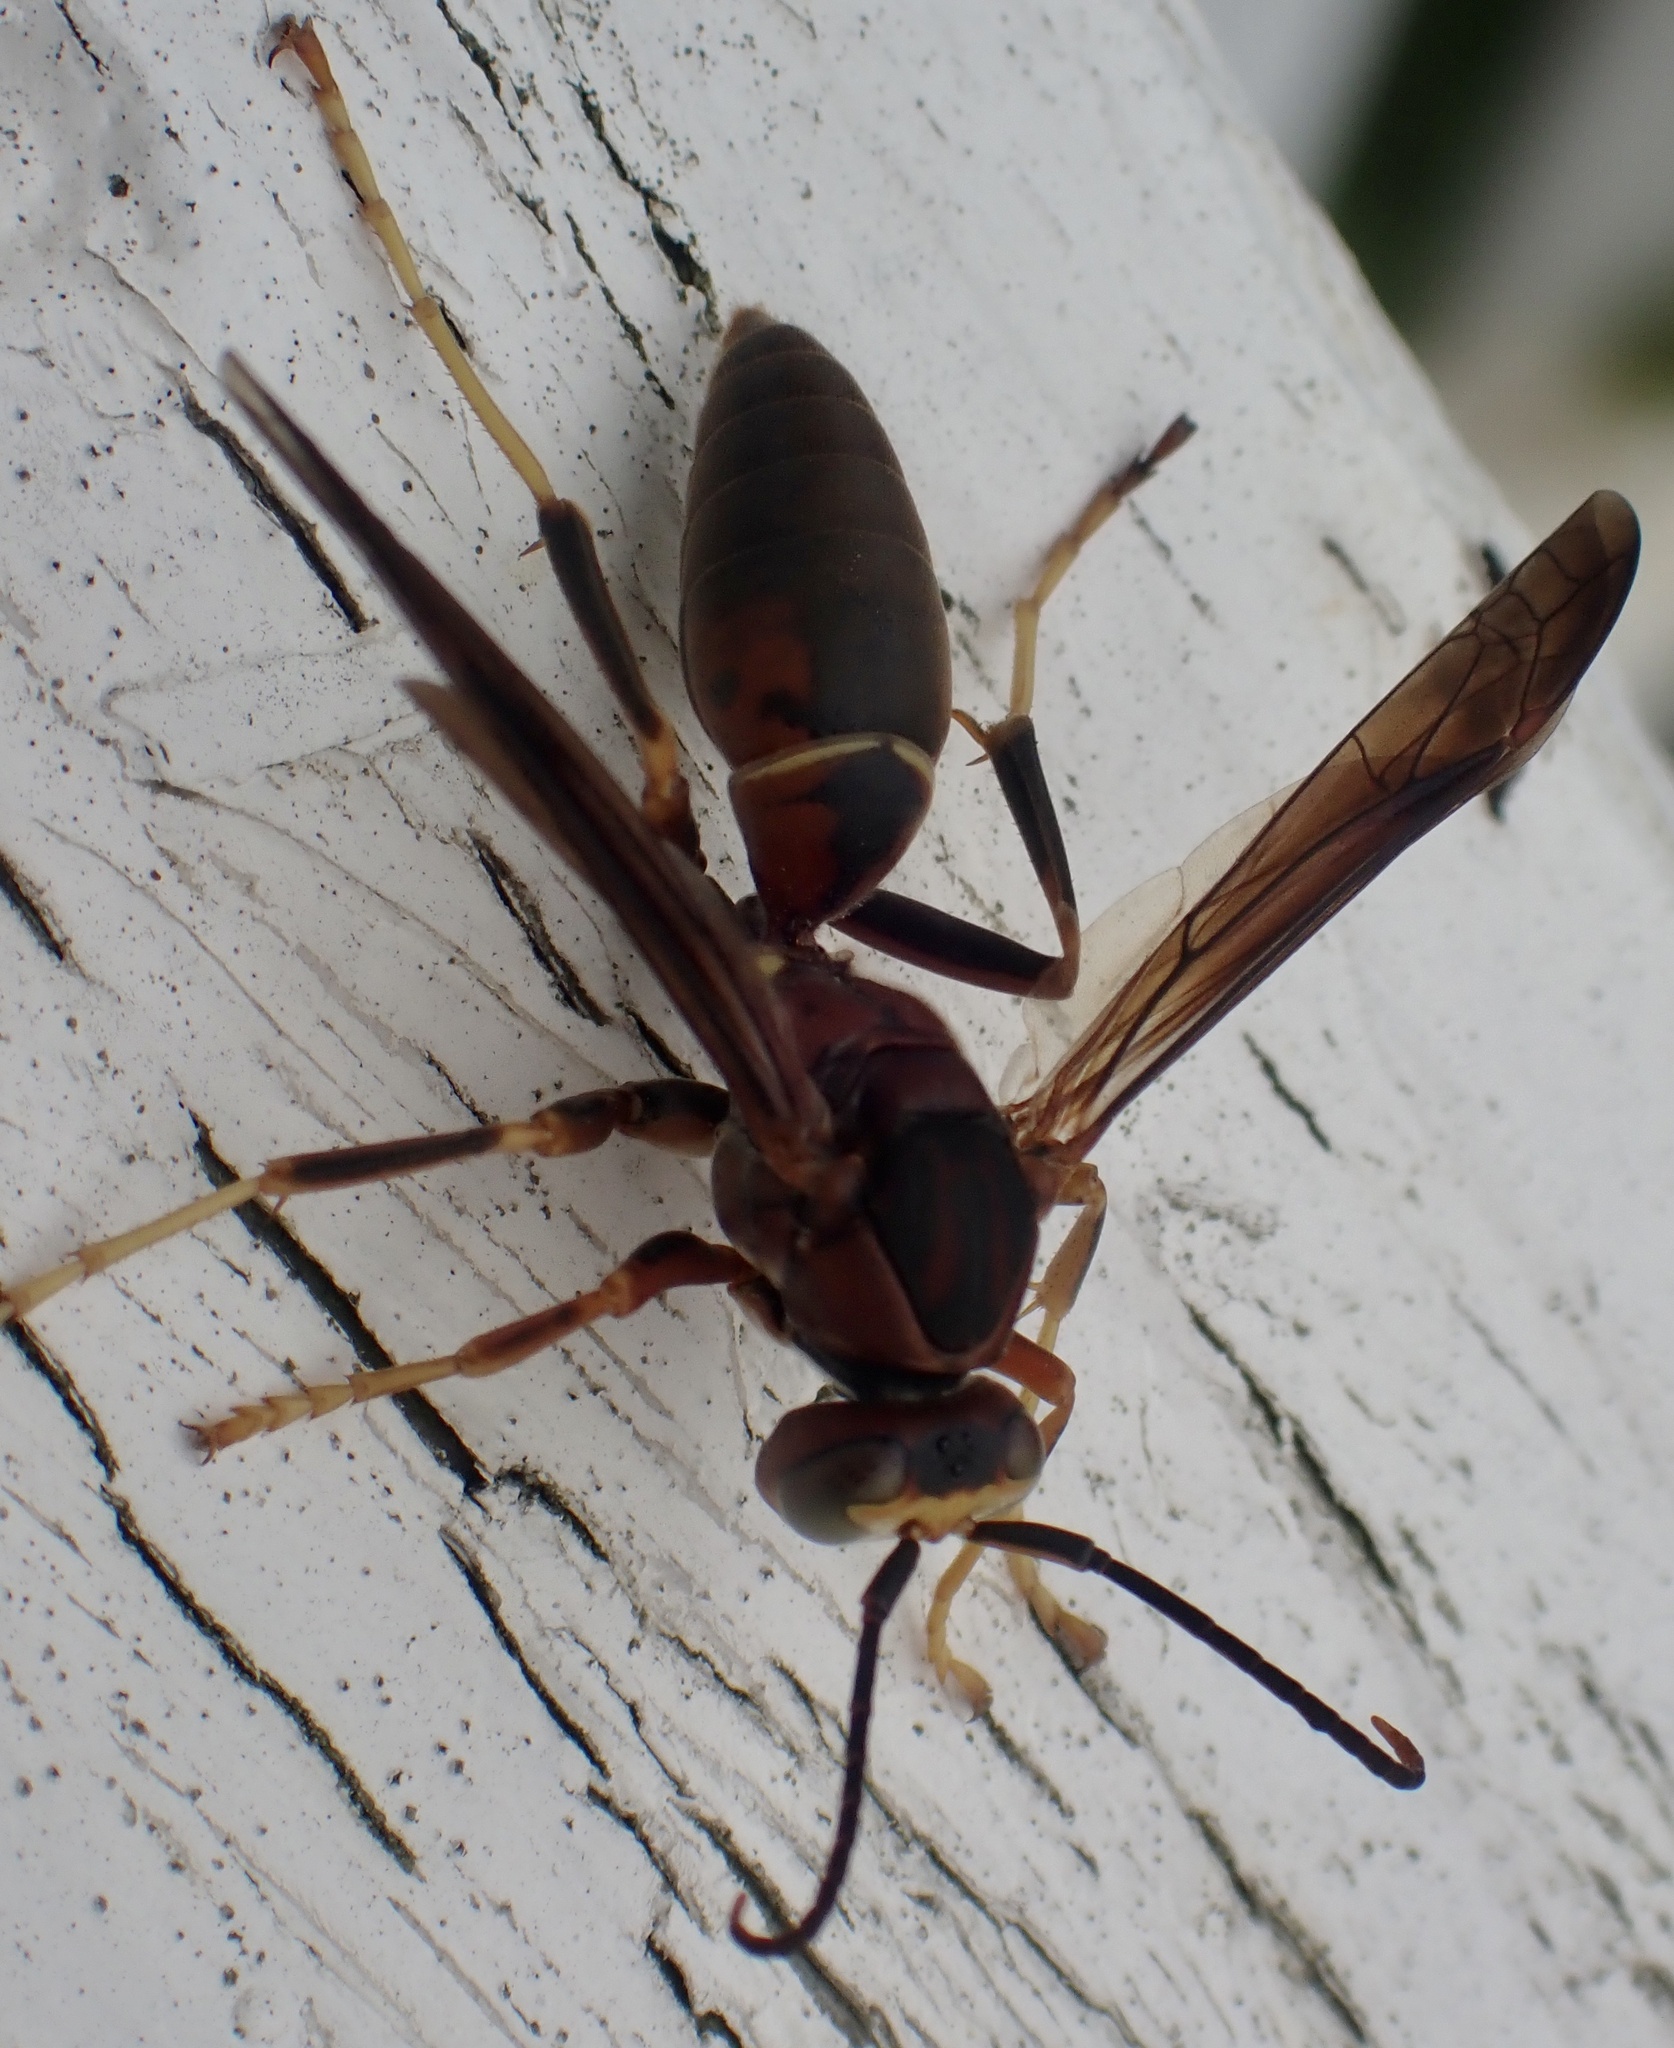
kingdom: Animalia
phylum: Arthropoda
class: Insecta
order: Hymenoptera
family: Eumenidae
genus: Polistes
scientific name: Polistes metricus
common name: Metric paper wasp
